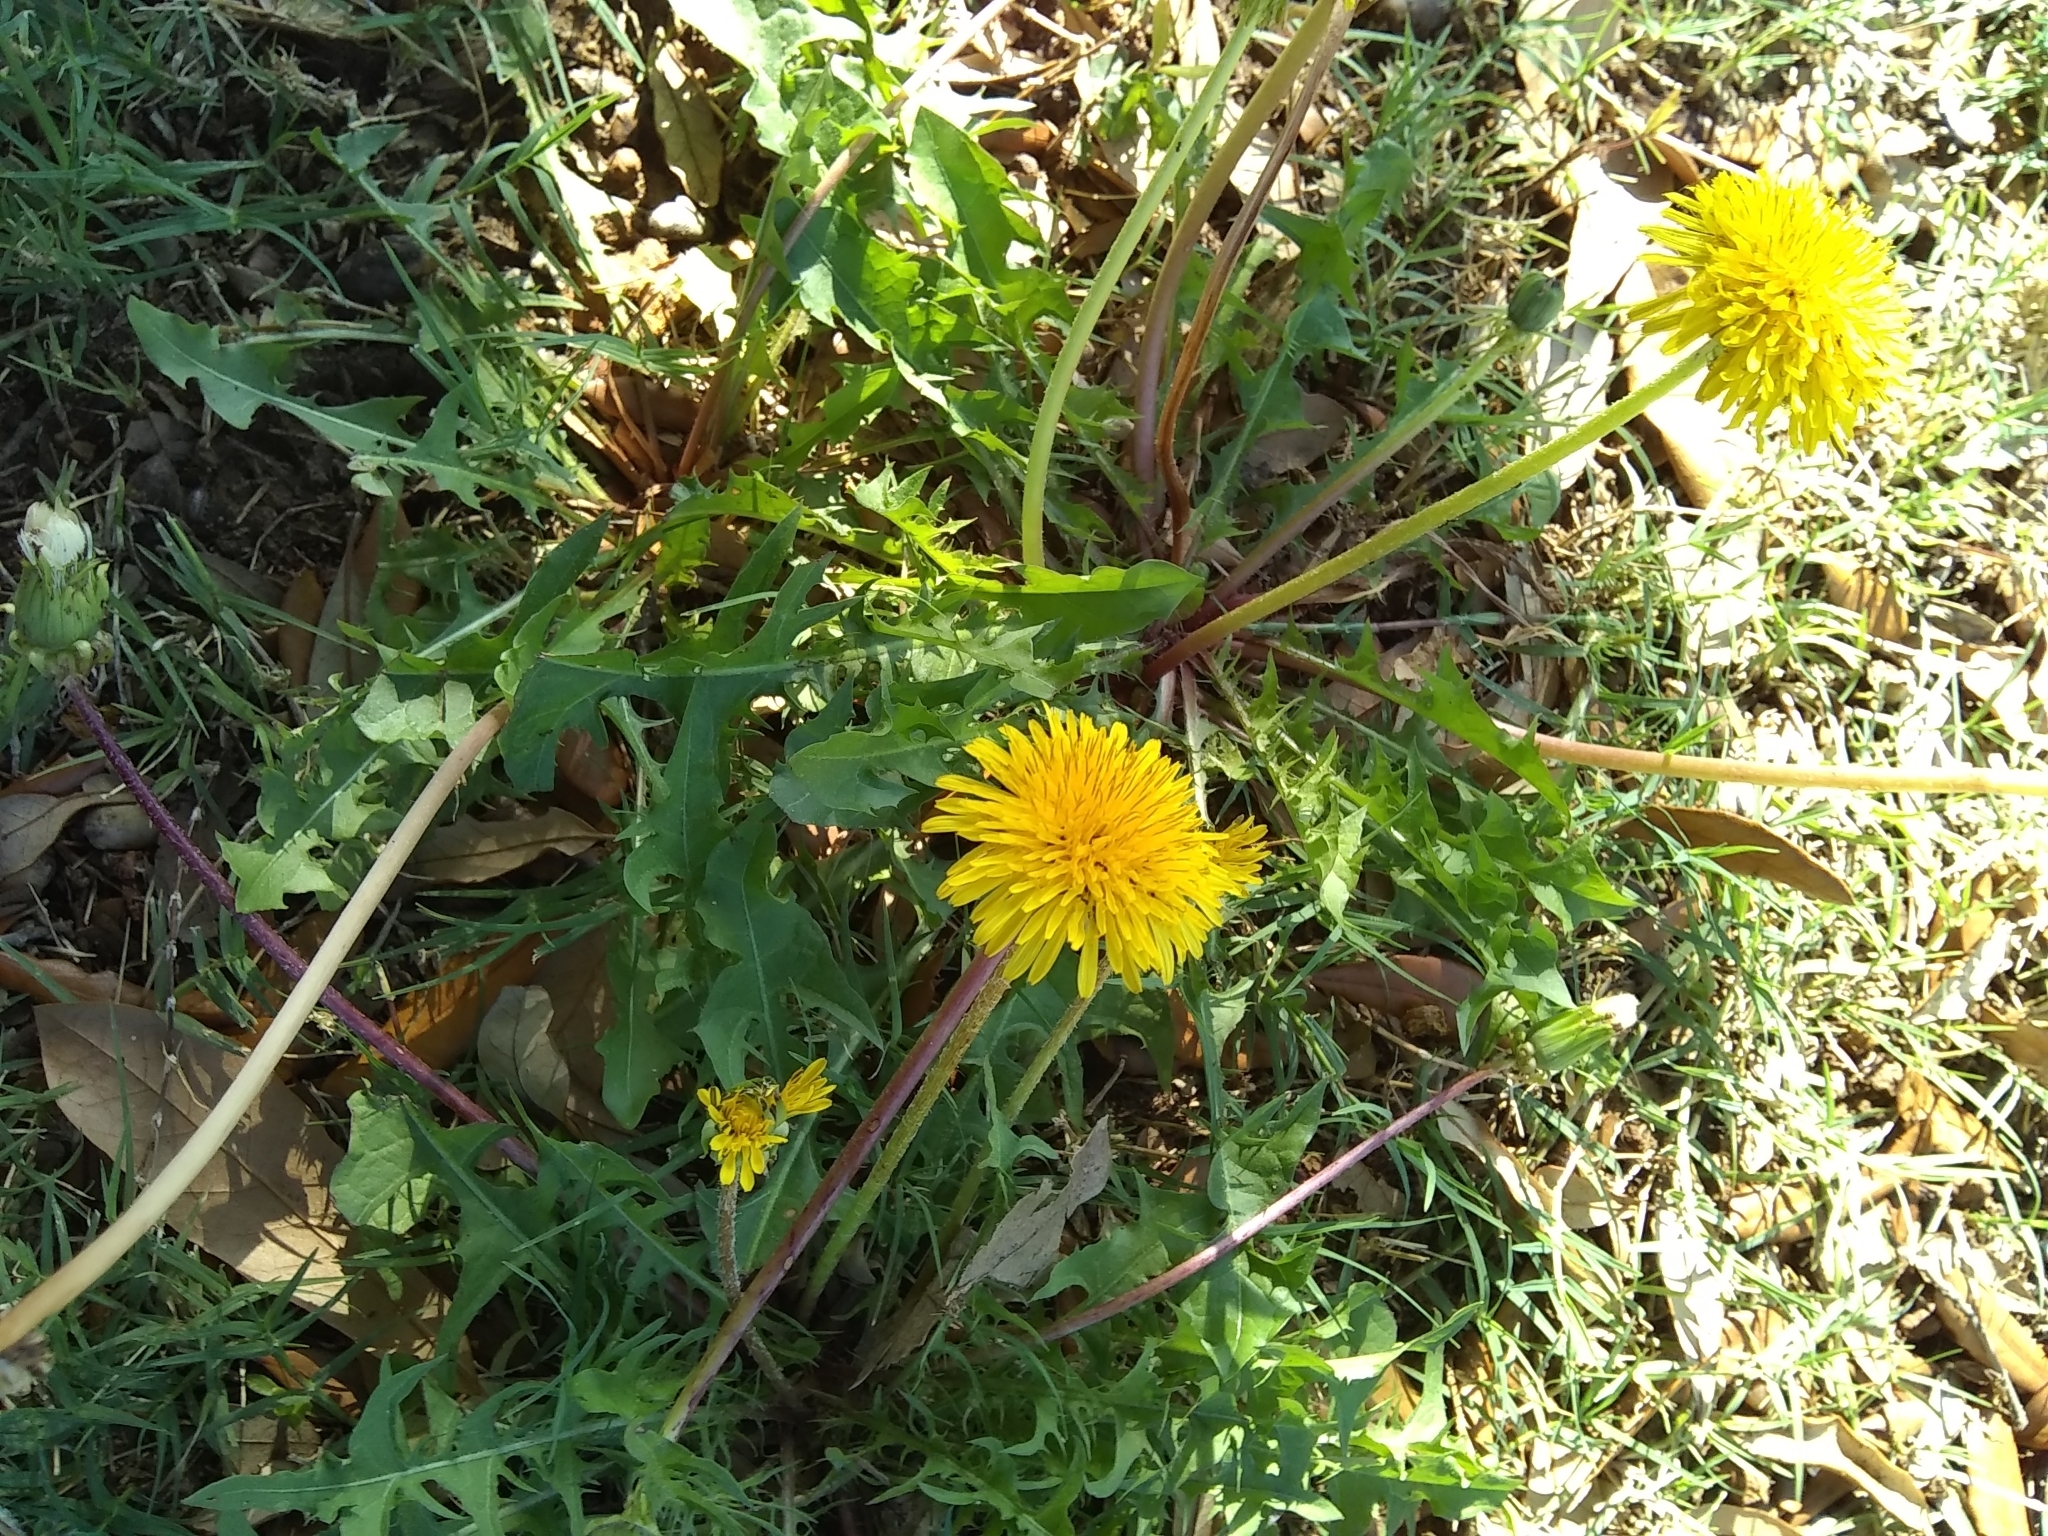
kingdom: Plantae
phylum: Tracheophyta
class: Magnoliopsida
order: Asterales
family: Asteraceae
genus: Taraxacum
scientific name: Taraxacum officinale
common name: Common dandelion
